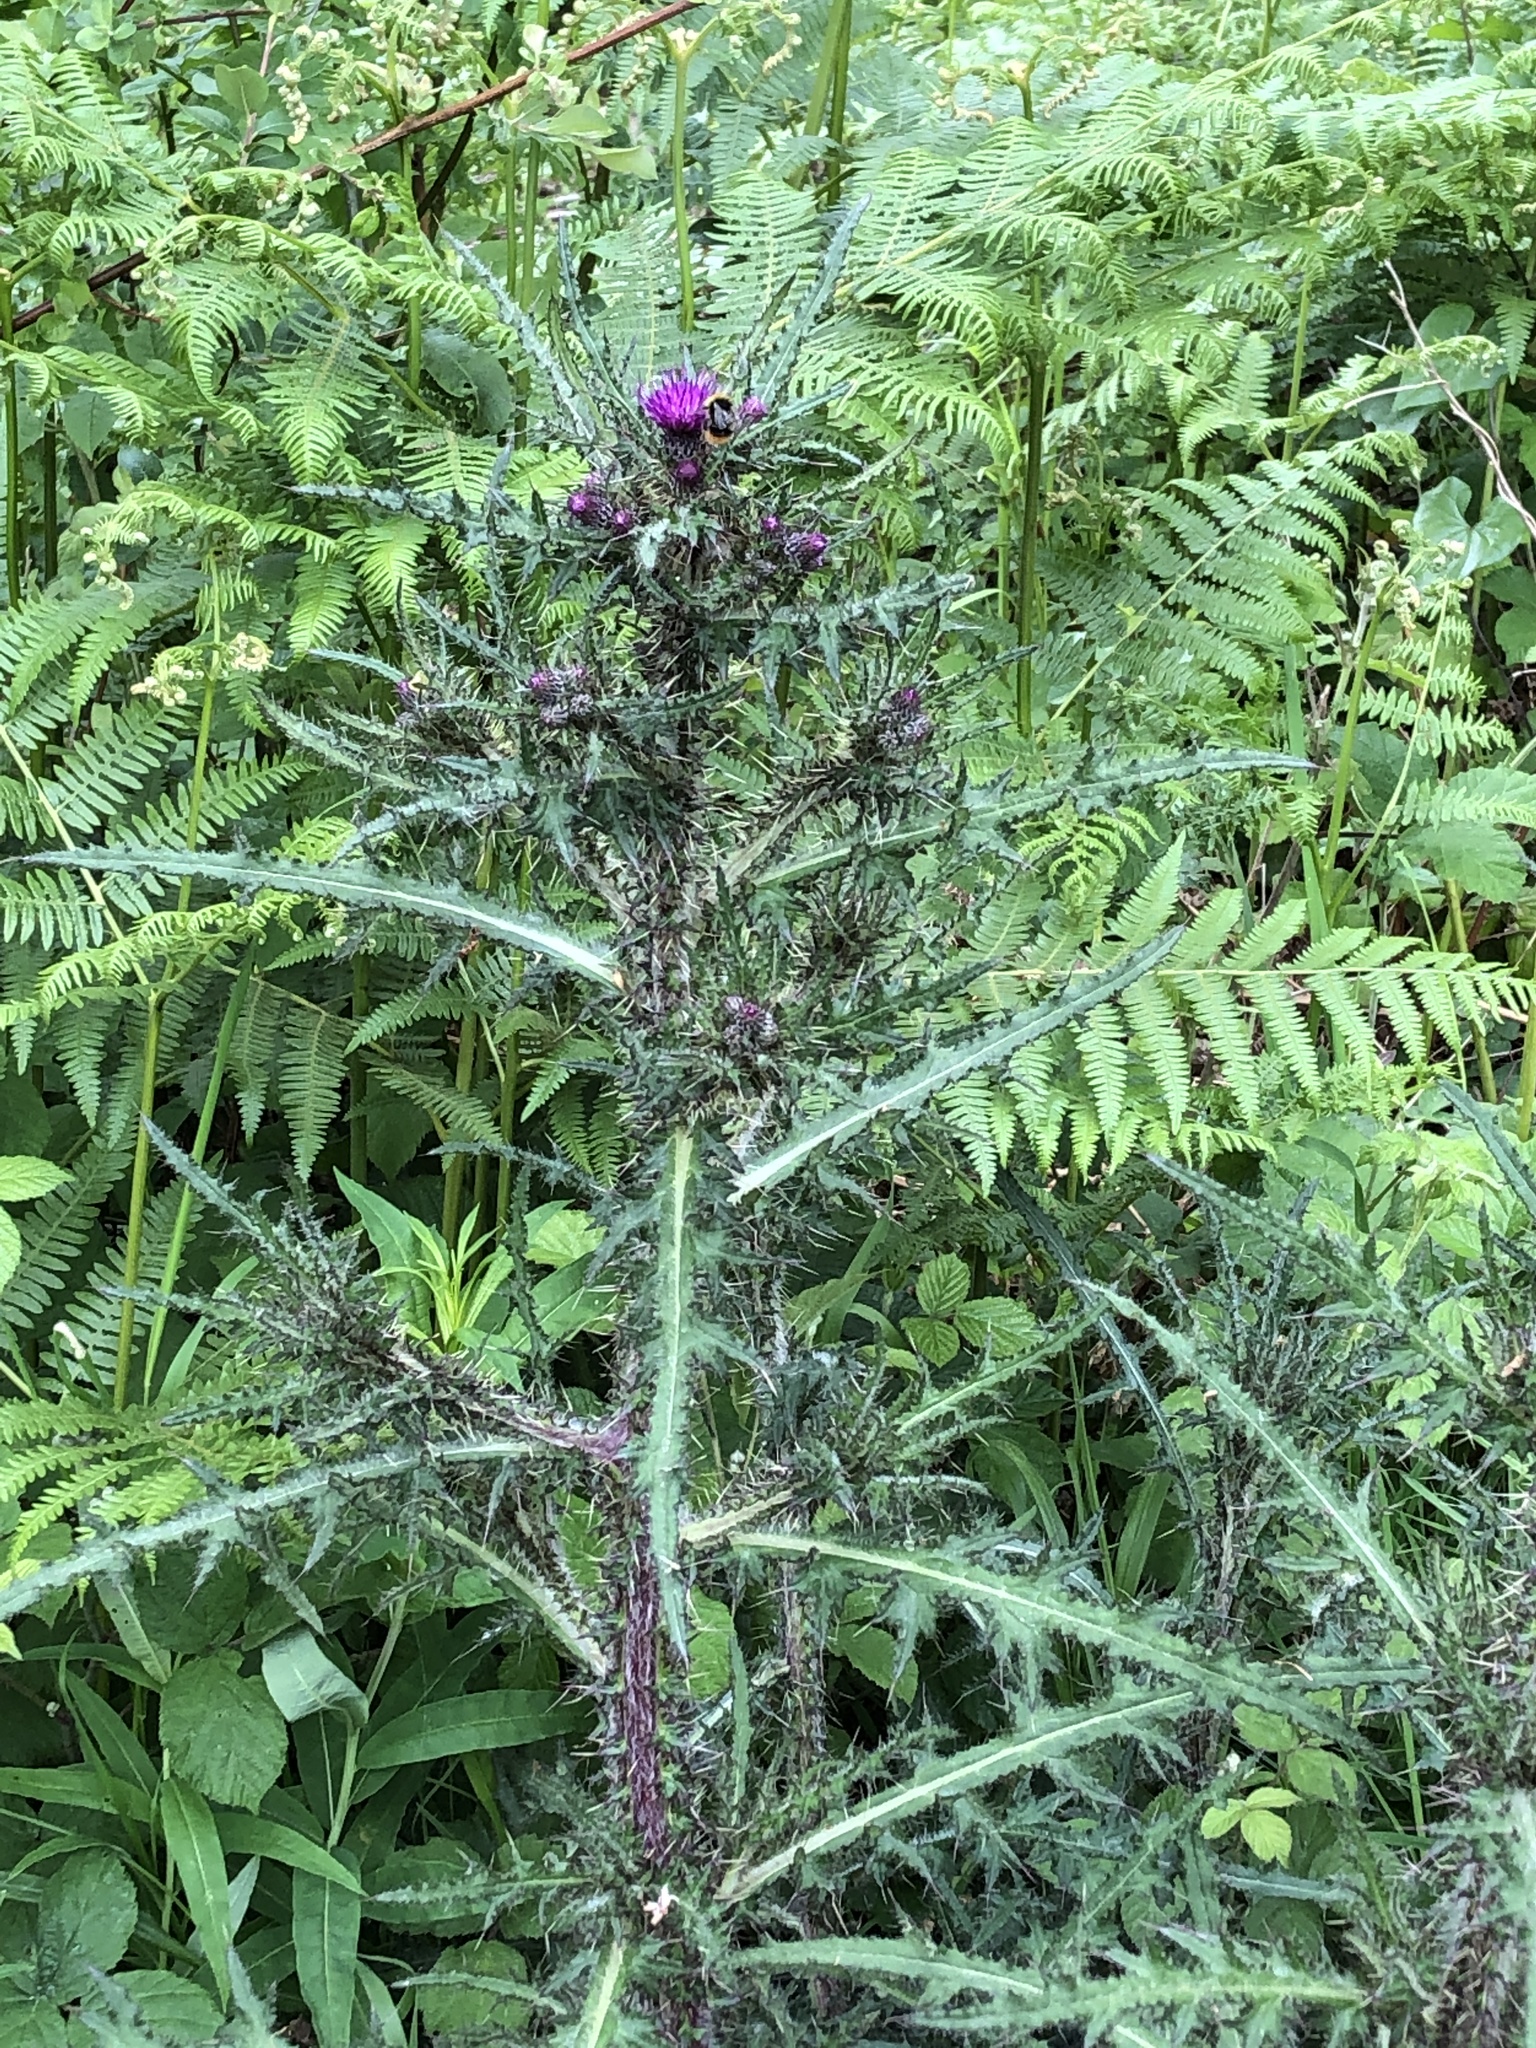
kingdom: Plantae
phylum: Tracheophyta
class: Magnoliopsida
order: Asterales
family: Asteraceae
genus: Cirsium
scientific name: Cirsium palustre
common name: Marsh thistle
